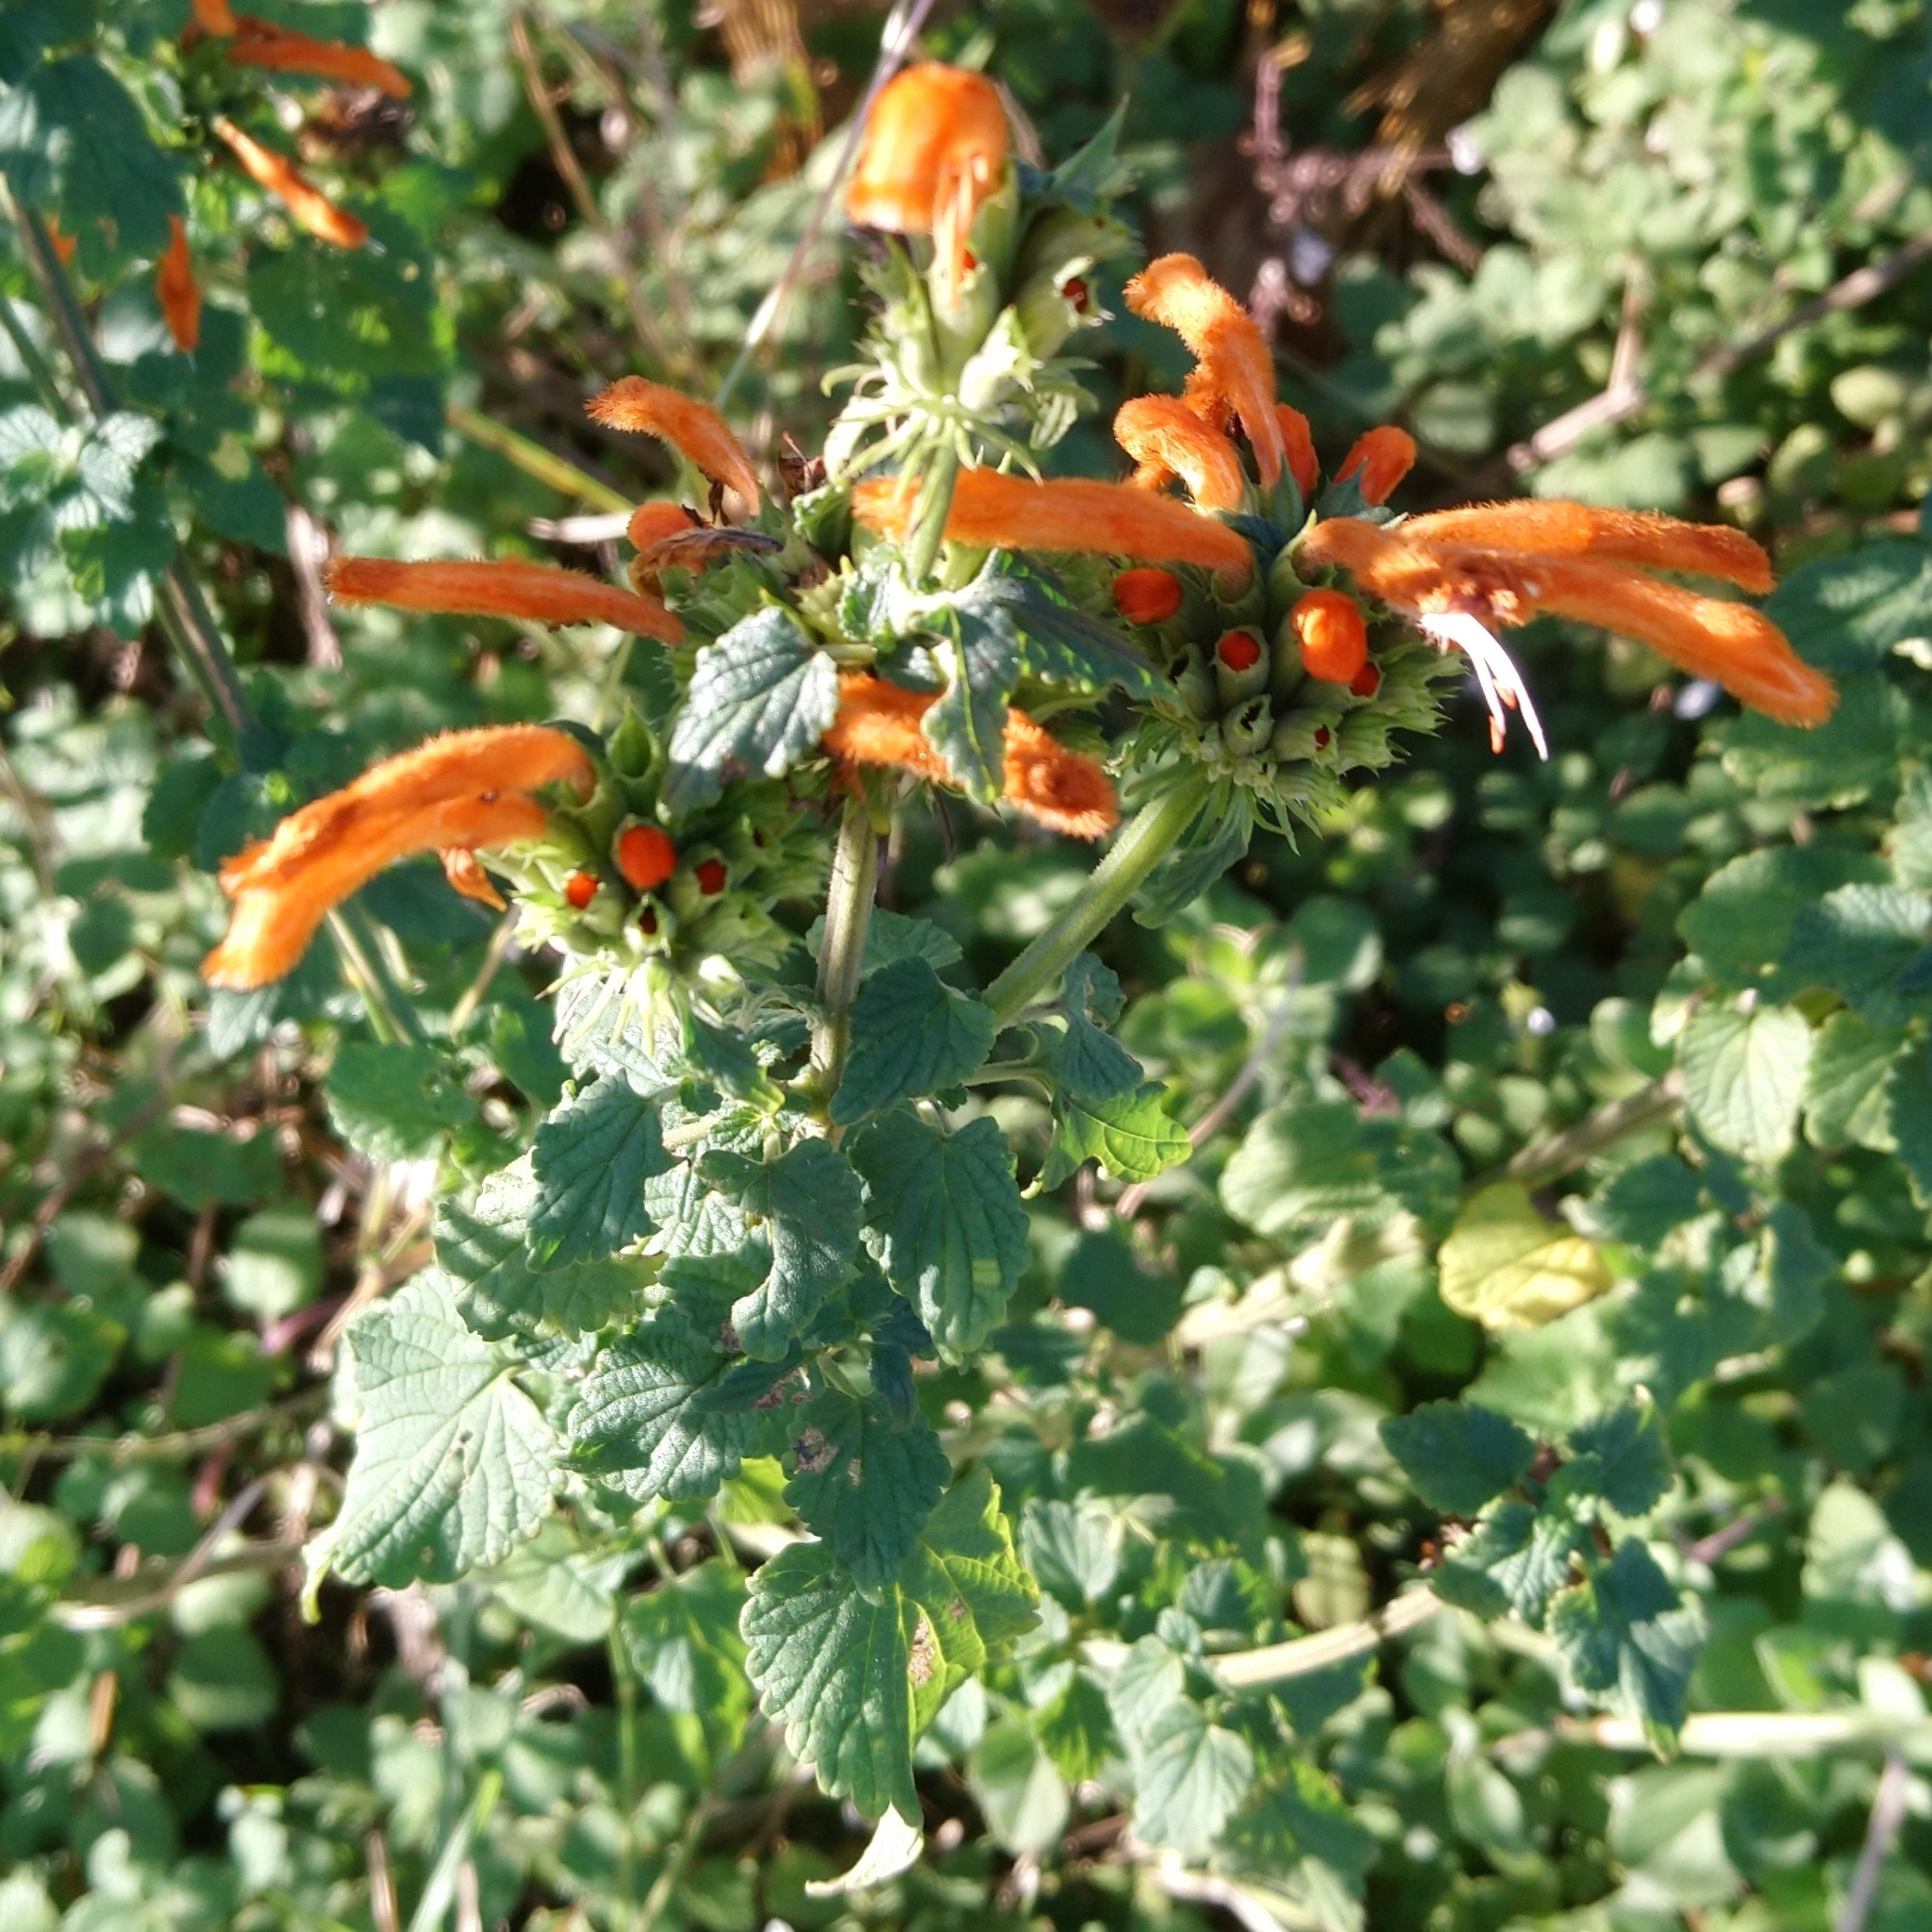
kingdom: Plantae
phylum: Tracheophyta
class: Magnoliopsida
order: Lamiales
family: Lamiaceae
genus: Leonotis
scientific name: Leonotis leonurus
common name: Lion's ear
